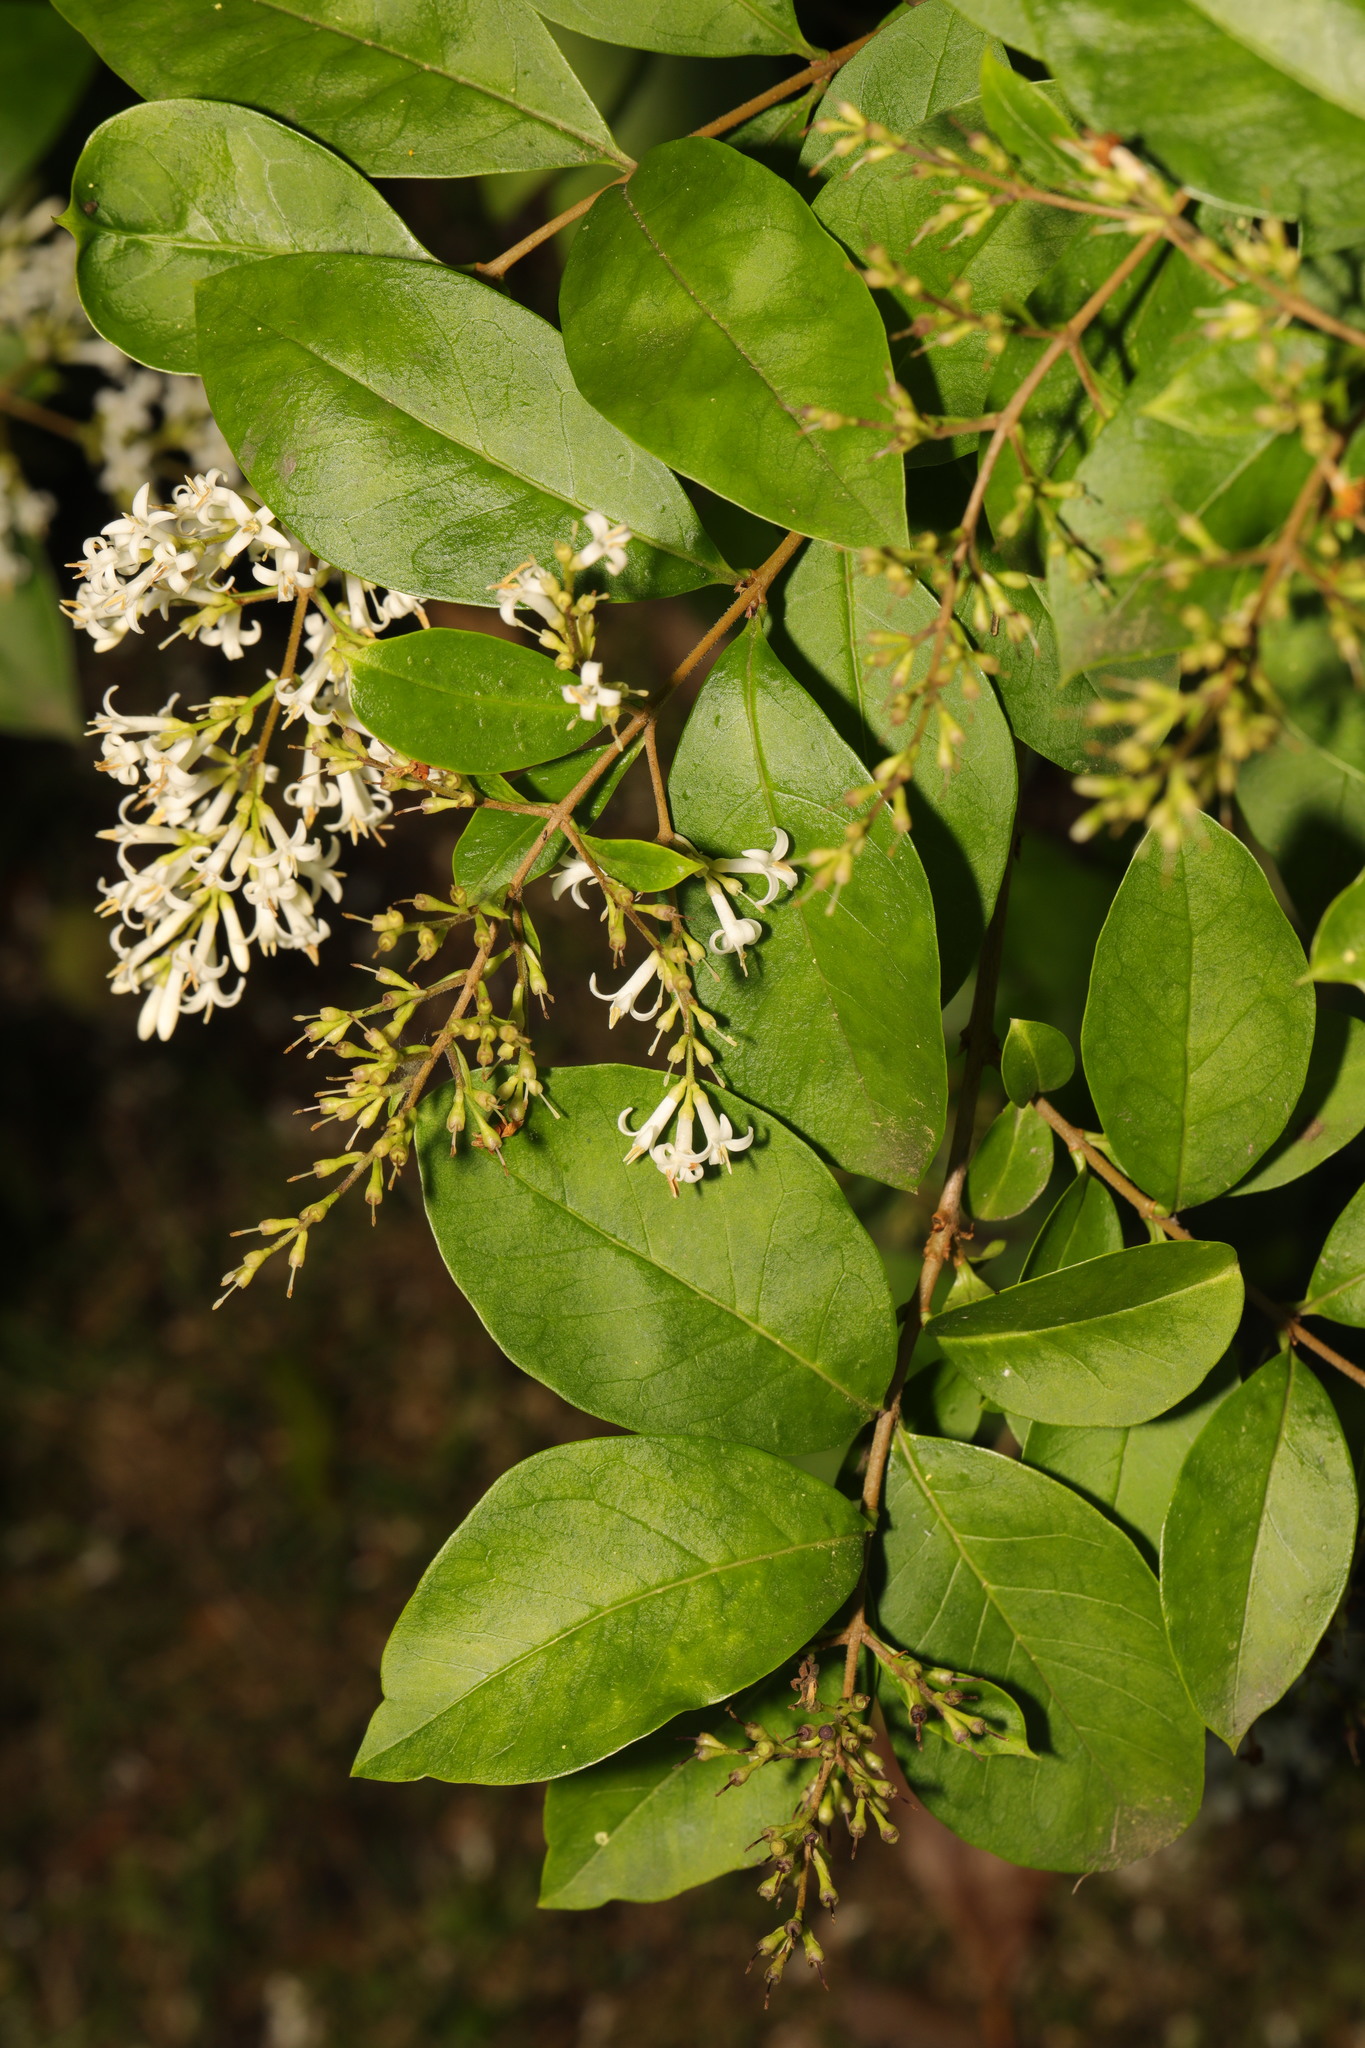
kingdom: Plantae
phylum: Tracheophyta
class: Magnoliopsida
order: Lamiales
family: Oleaceae
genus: Ligustrum
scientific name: Ligustrum ovalifolium
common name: California privet
